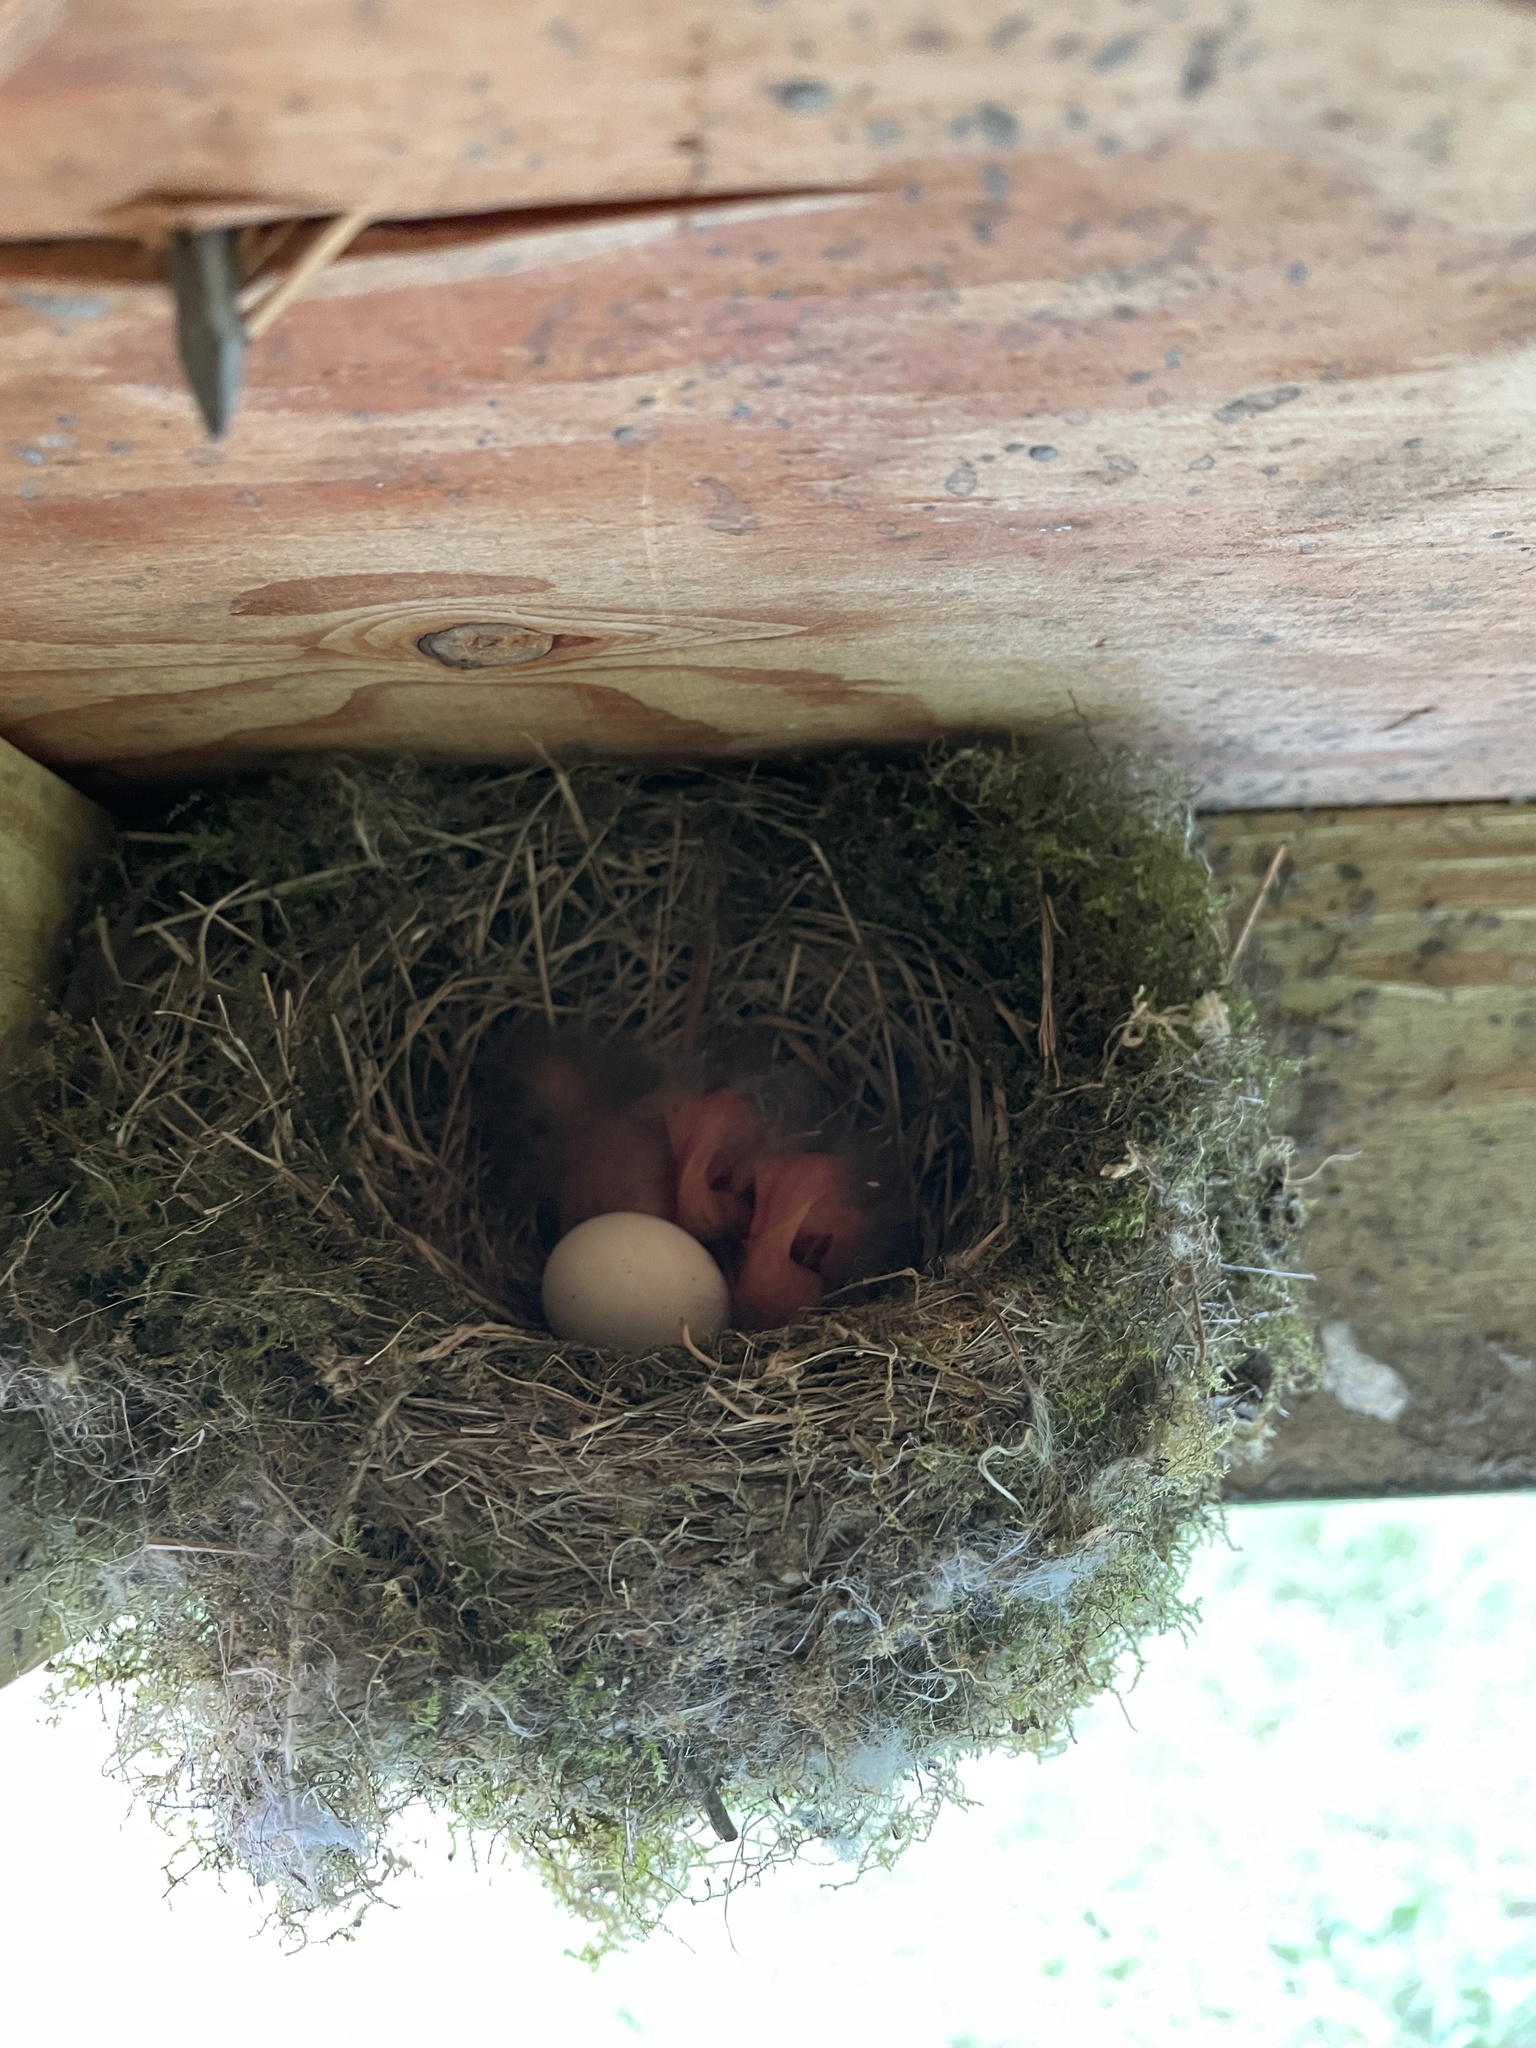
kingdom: Animalia
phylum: Chordata
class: Aves
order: Passeriformes
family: Tyrannidae
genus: Sayornis
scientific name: Sayornis phoebe
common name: Eastern phoebe
